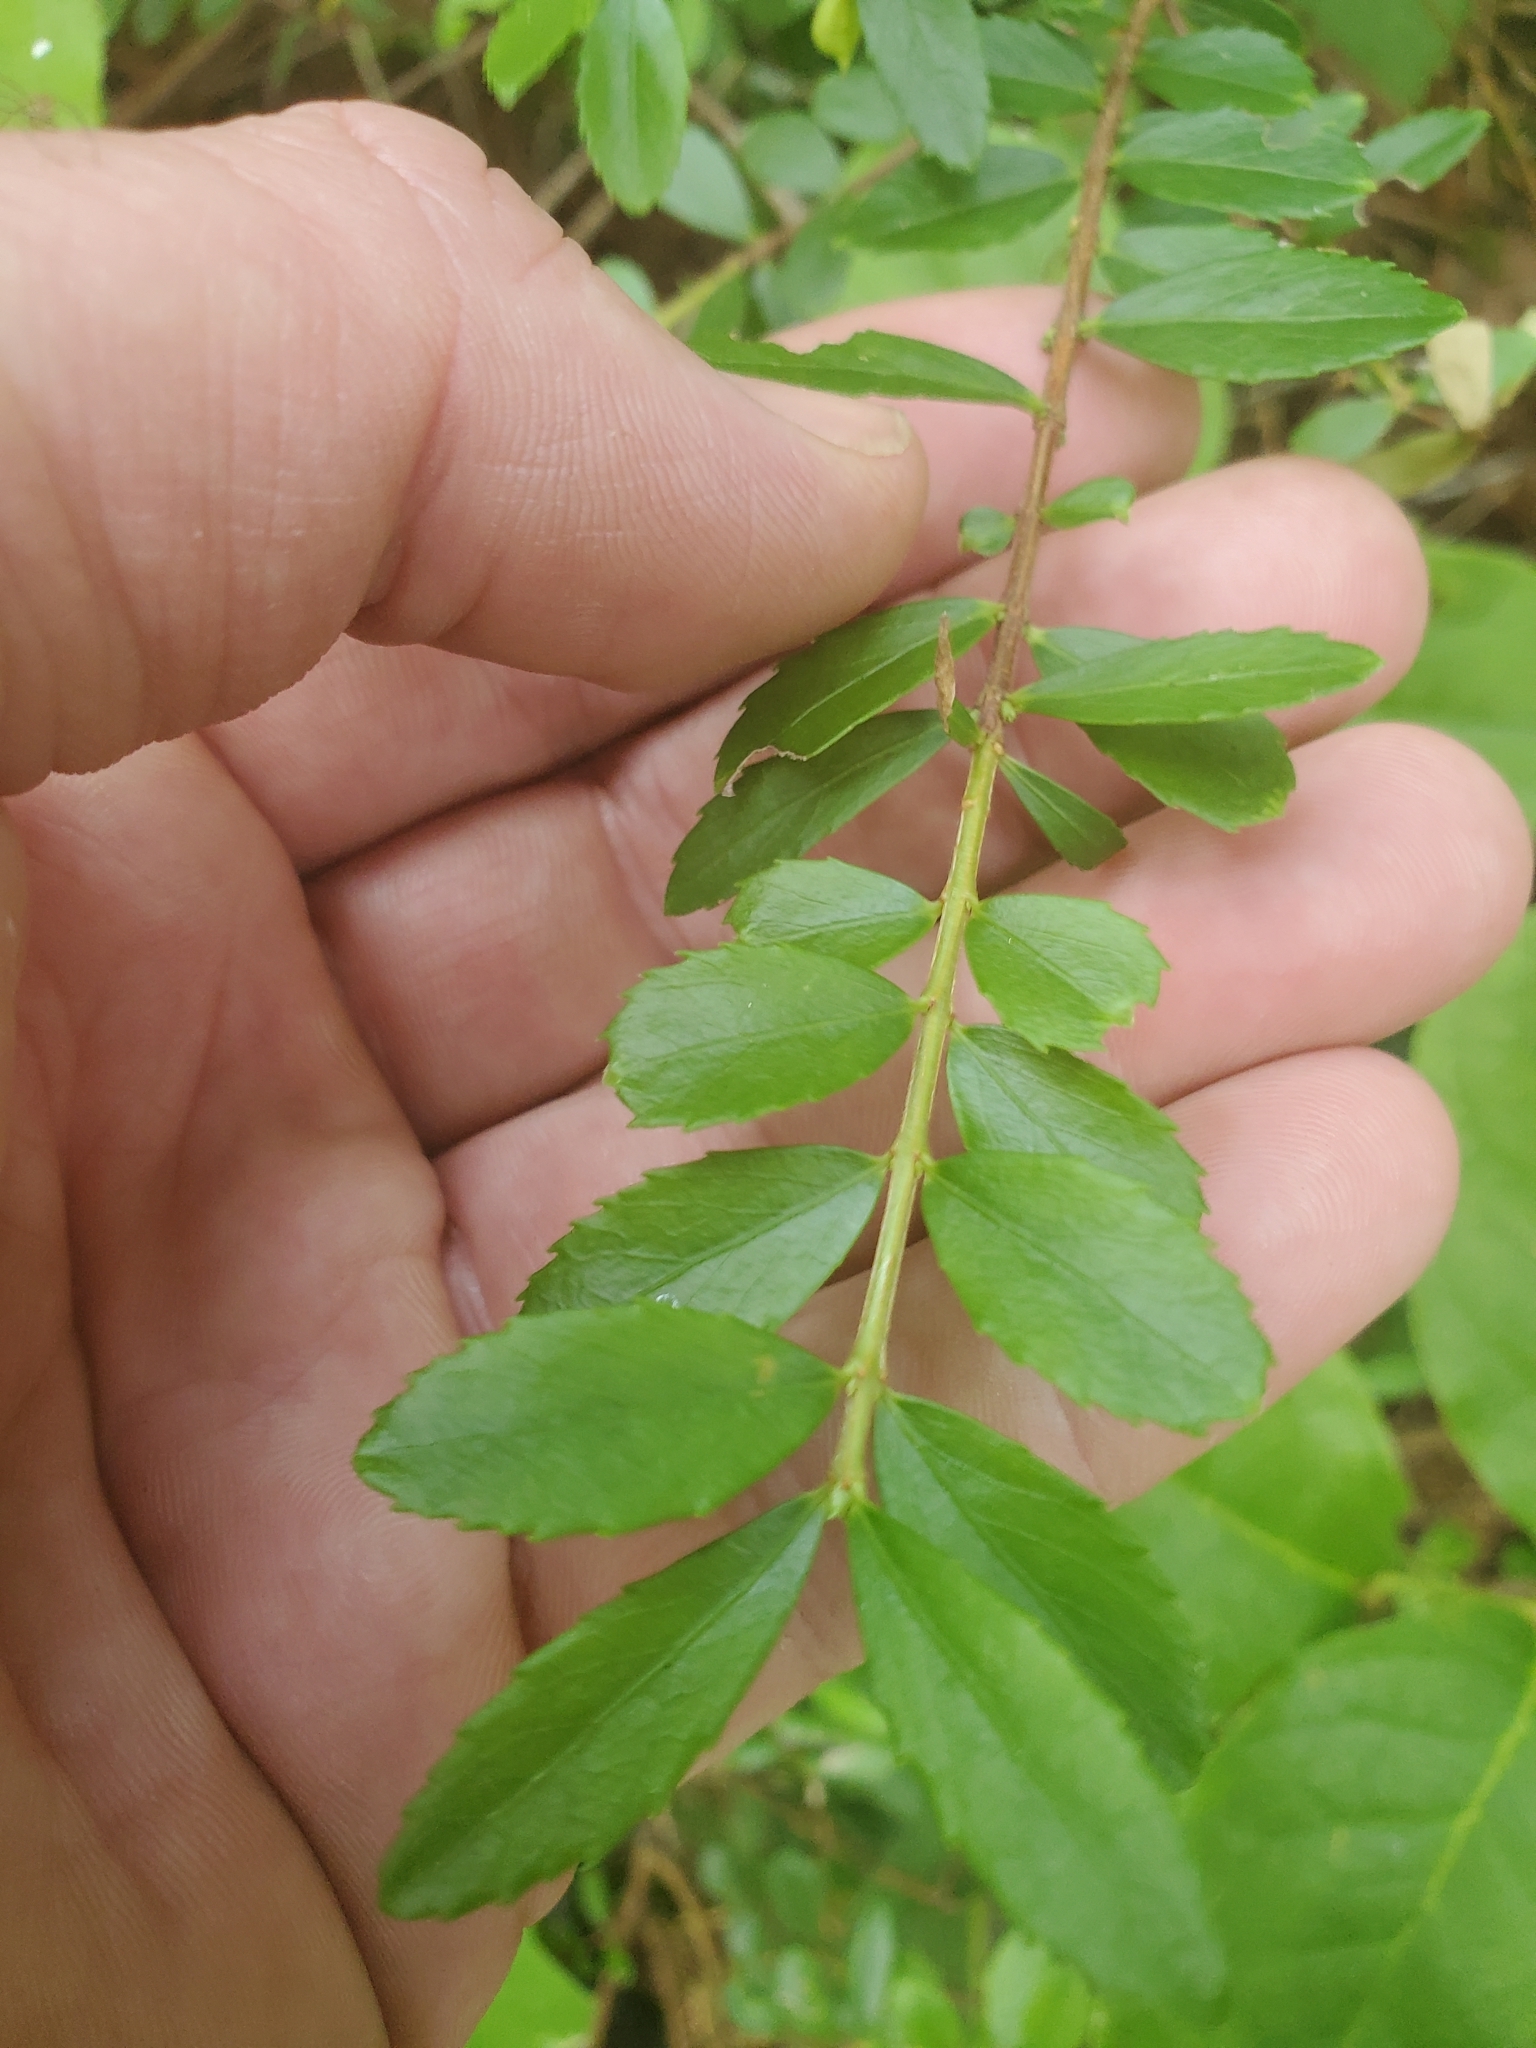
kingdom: Plantae
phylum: Tracheophyta
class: Magnoliopsida
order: Celastrales
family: Celastraceae
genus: Paxistima
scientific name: Paxistima myrsinites
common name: Mountain-lover
